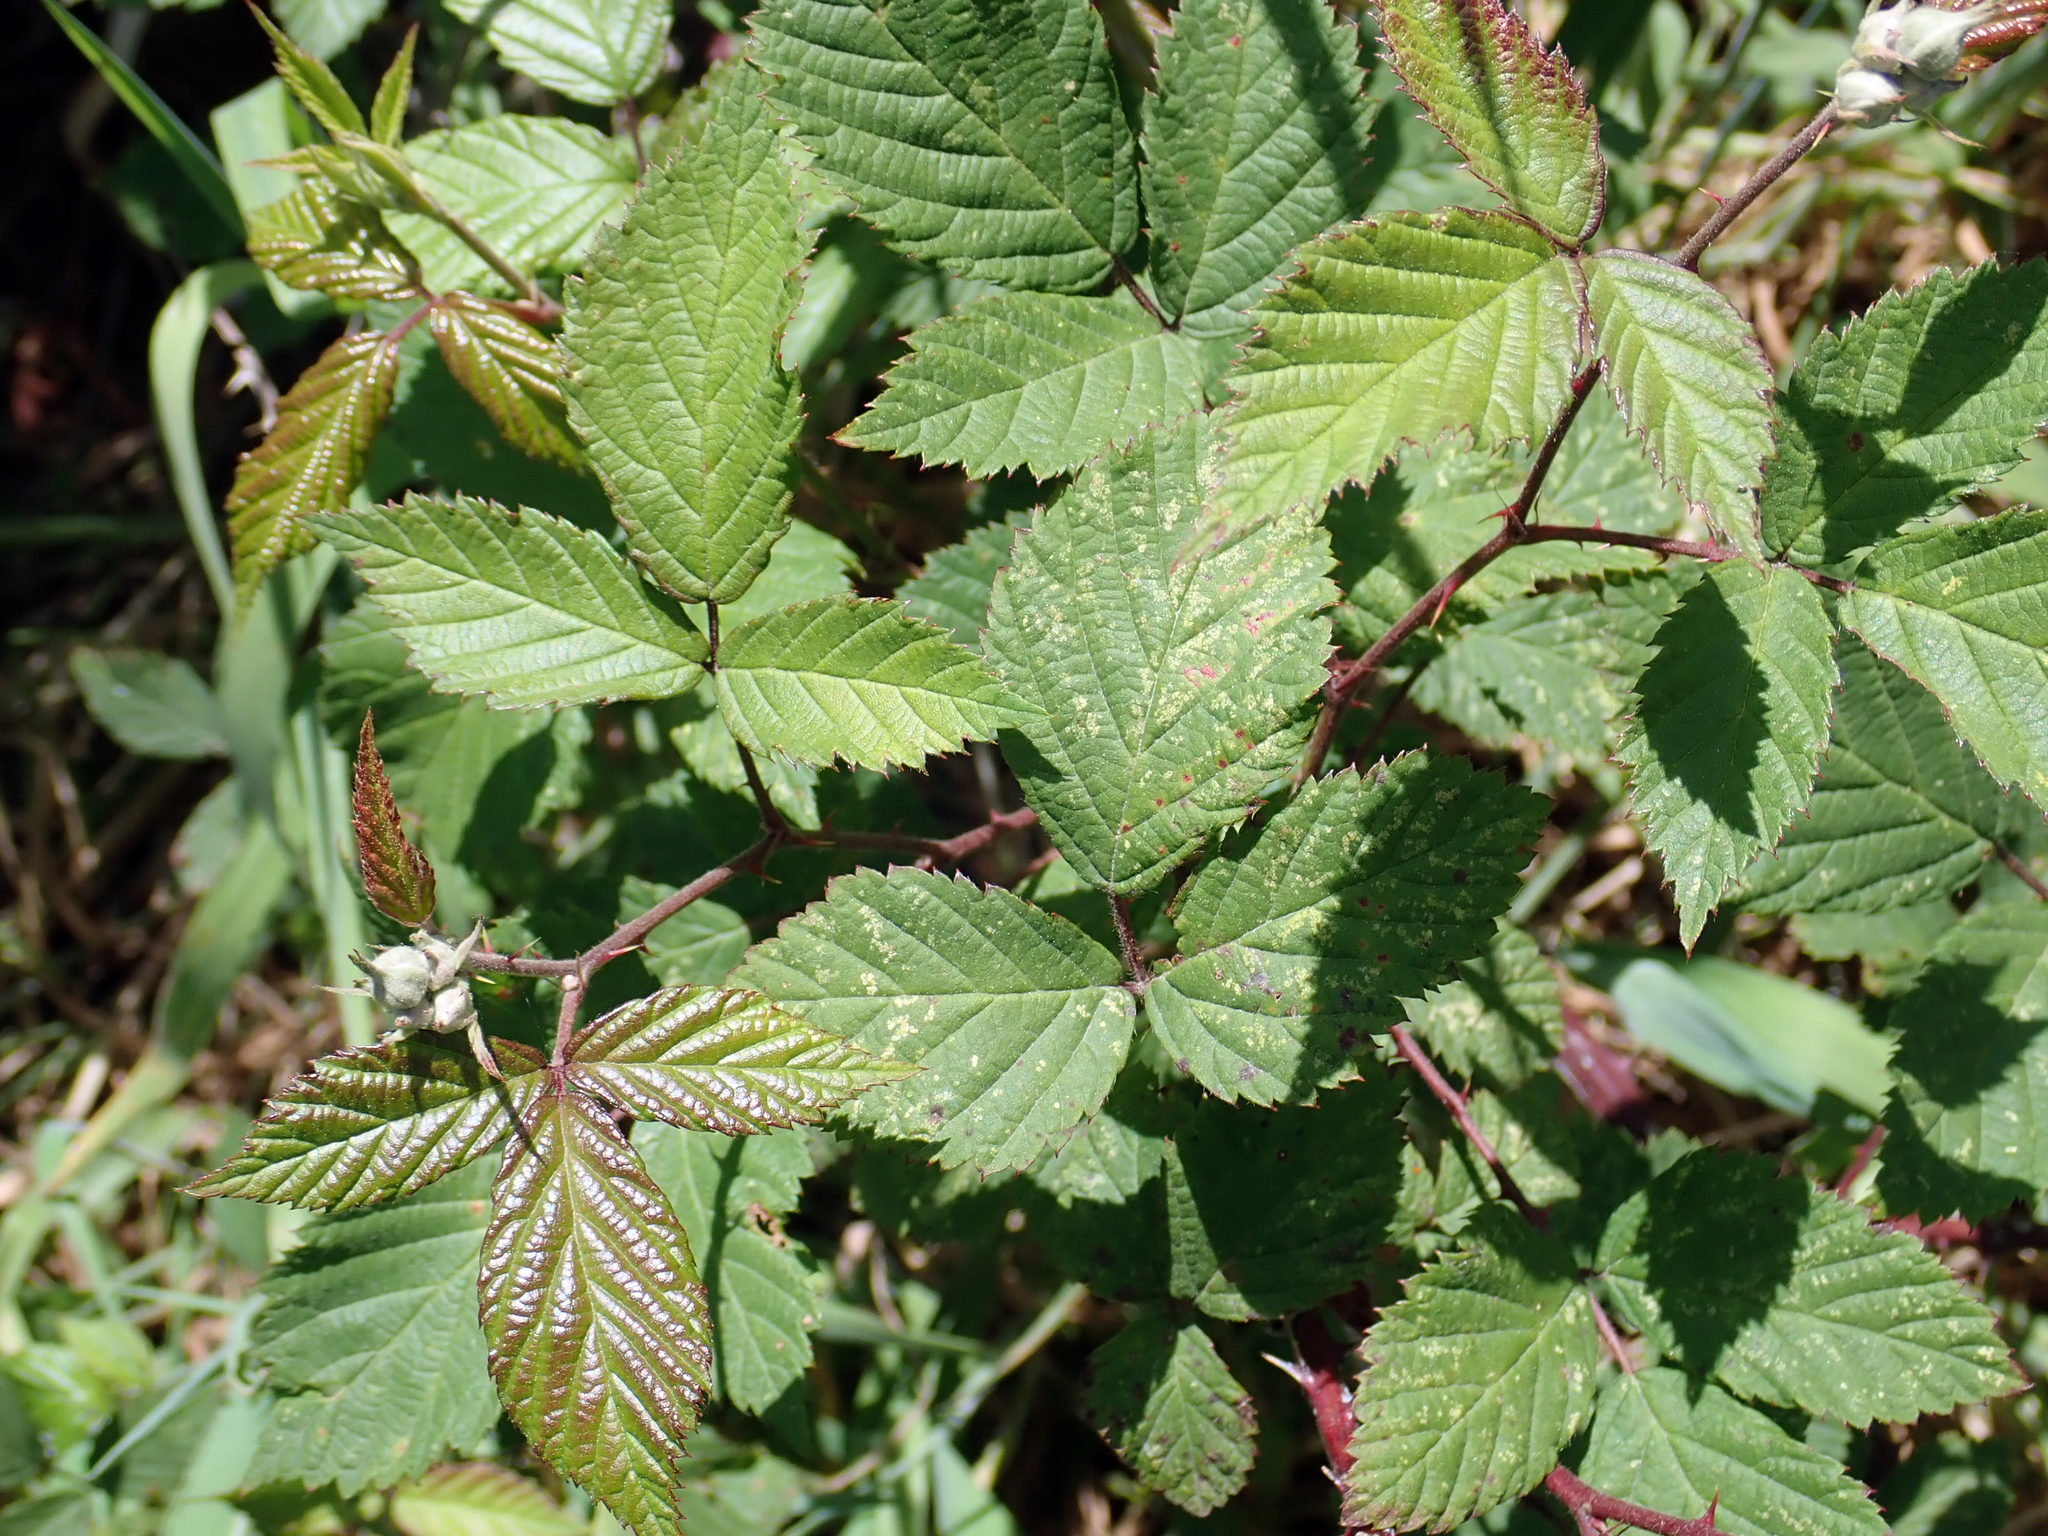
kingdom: Plantae
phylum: Tracheophyta
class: Magnoliopsida
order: Rosales
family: Rosaceae
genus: Rubus
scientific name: Rubus
